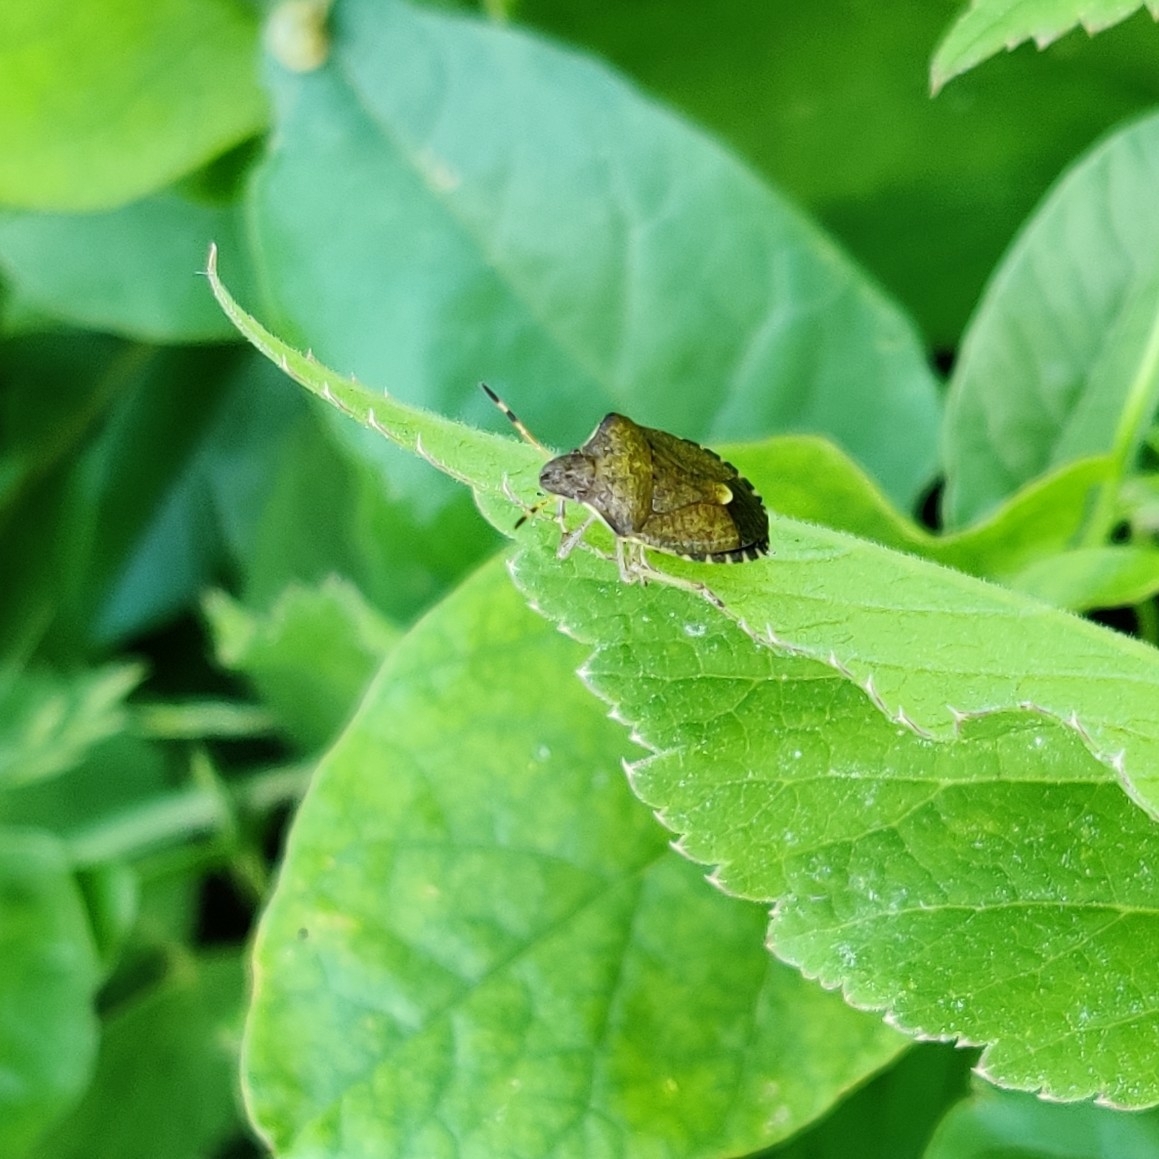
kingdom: Animalia
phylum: Arthropoda
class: Insecta
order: Hemiptera
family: Pentatomidae
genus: Holcostethus
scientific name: Holcostethus strictus
